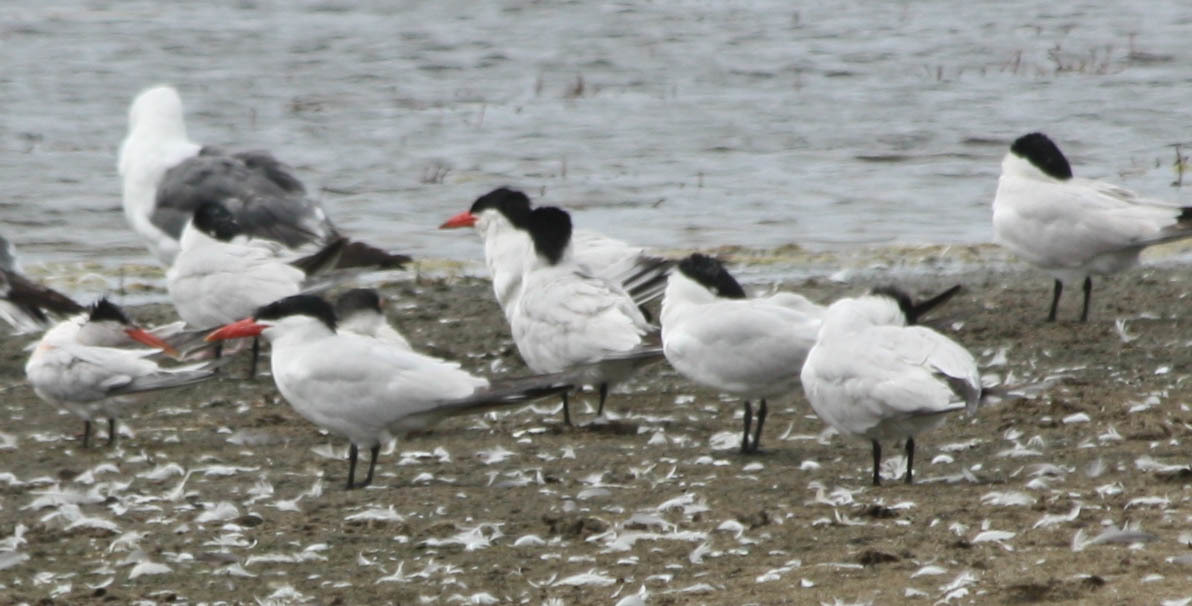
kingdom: Animalia
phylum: Chordata
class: Aves
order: Charadriiformes
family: Laridae
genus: Hydroprogne
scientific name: Hydroprogne caspia
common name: Caspian tern
